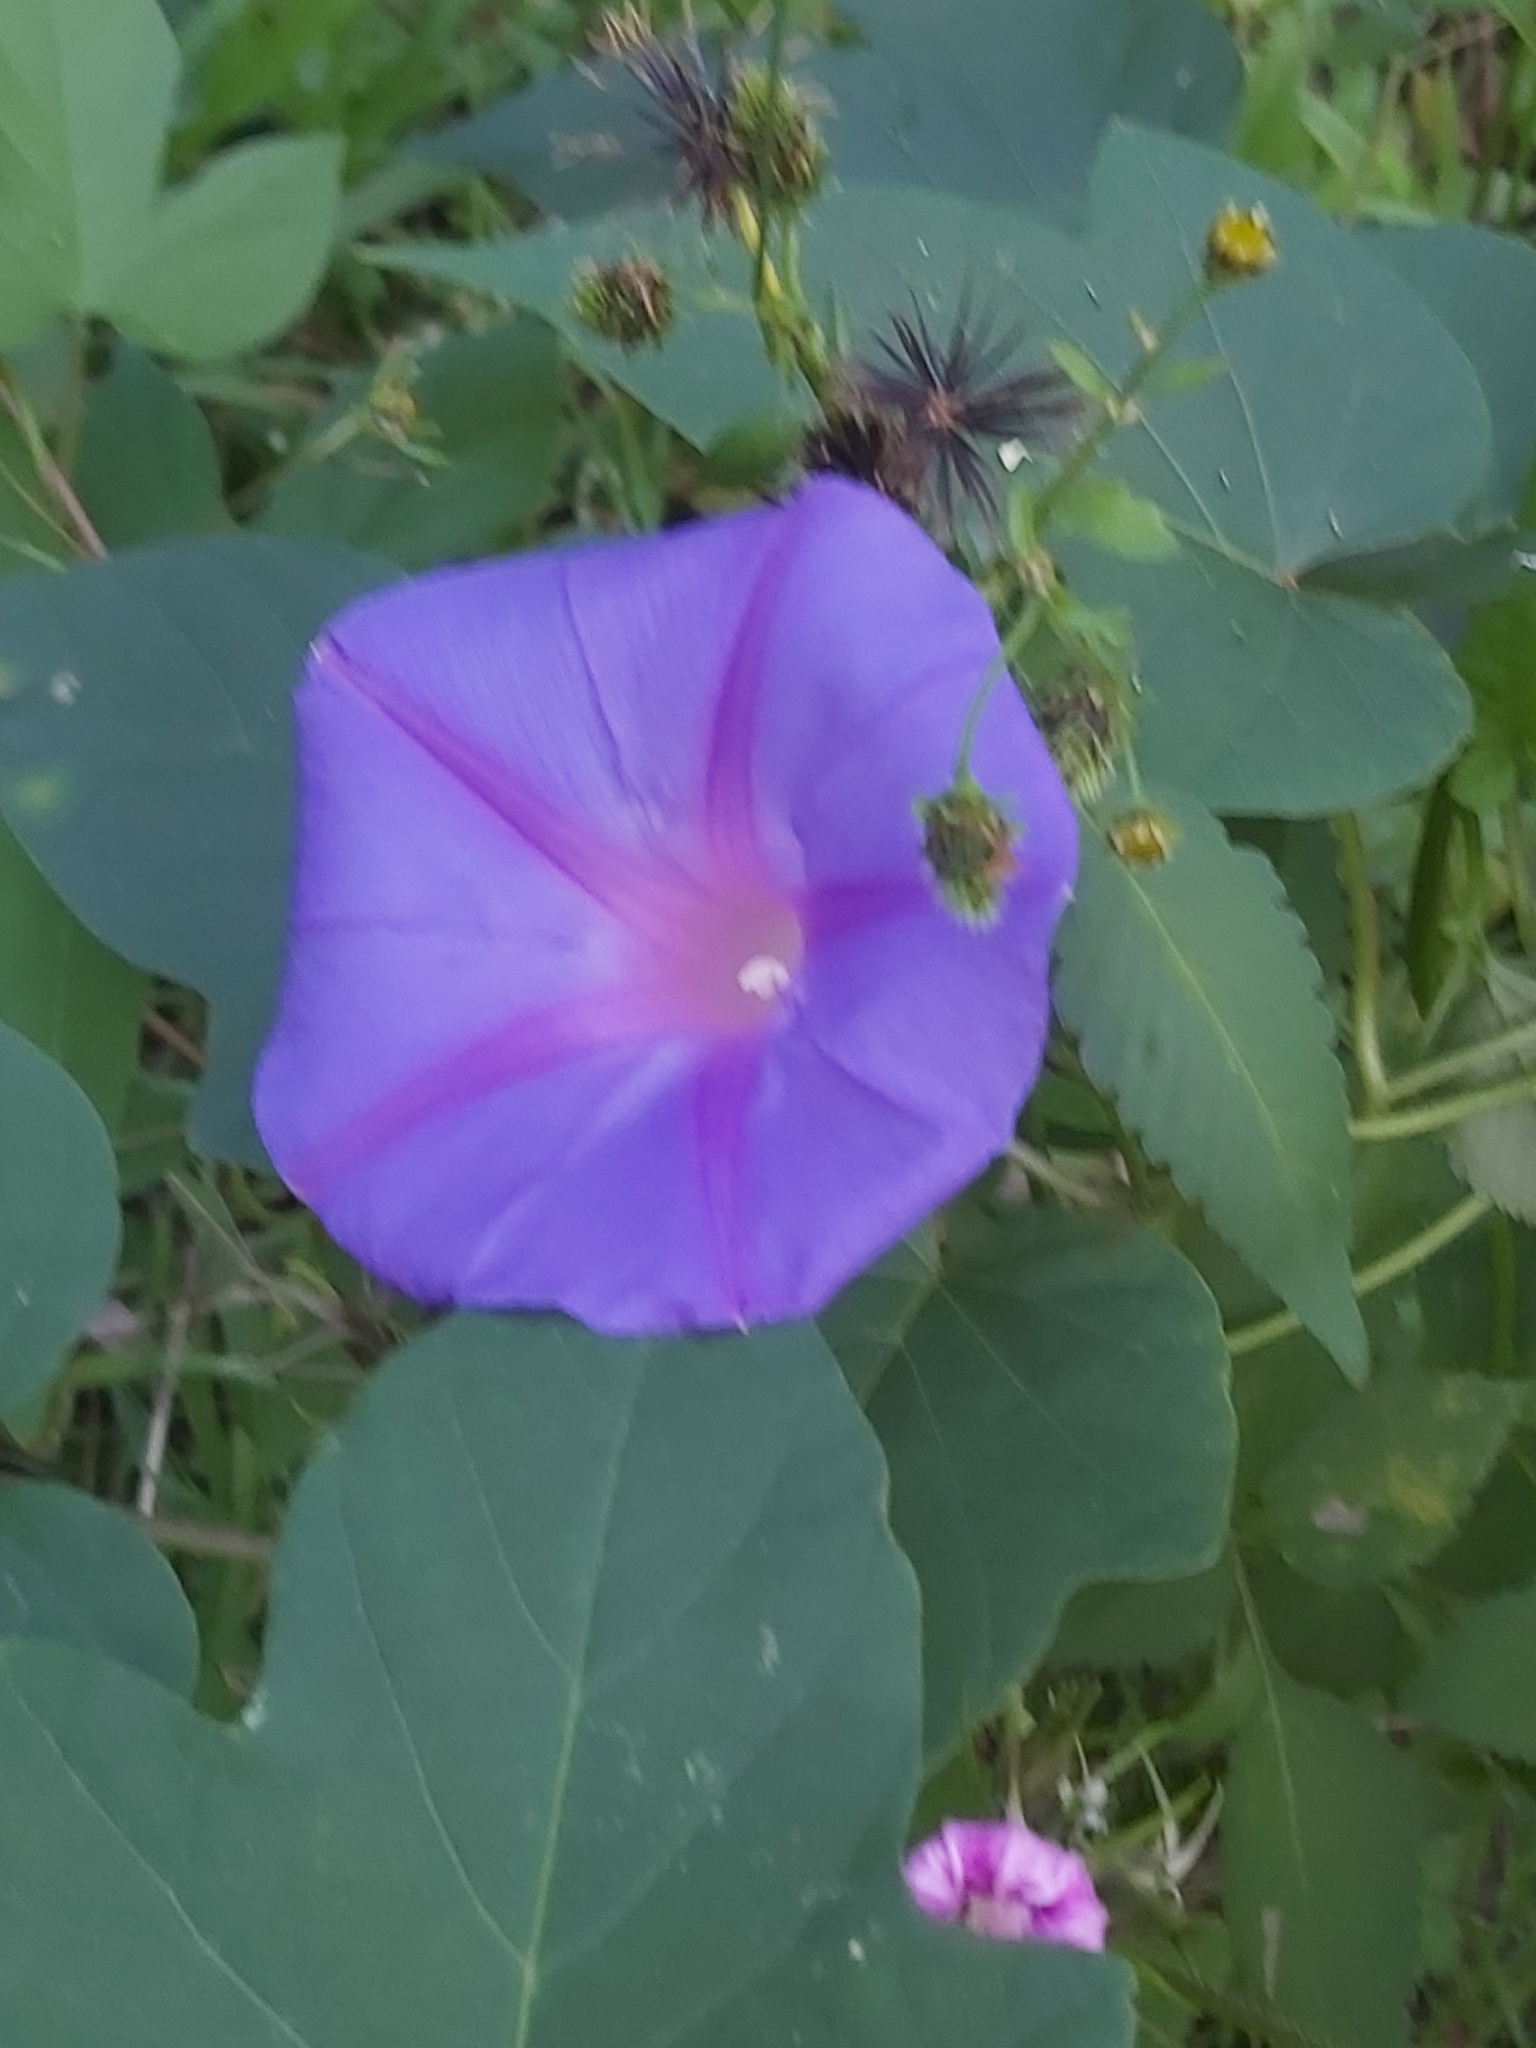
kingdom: Plantae
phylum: Tracheophyta
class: Magnoliopsida
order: Solanales
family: Convolvulaceae
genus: Ipomoea
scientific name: Ipomoea indica
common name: Blue dawnflower
